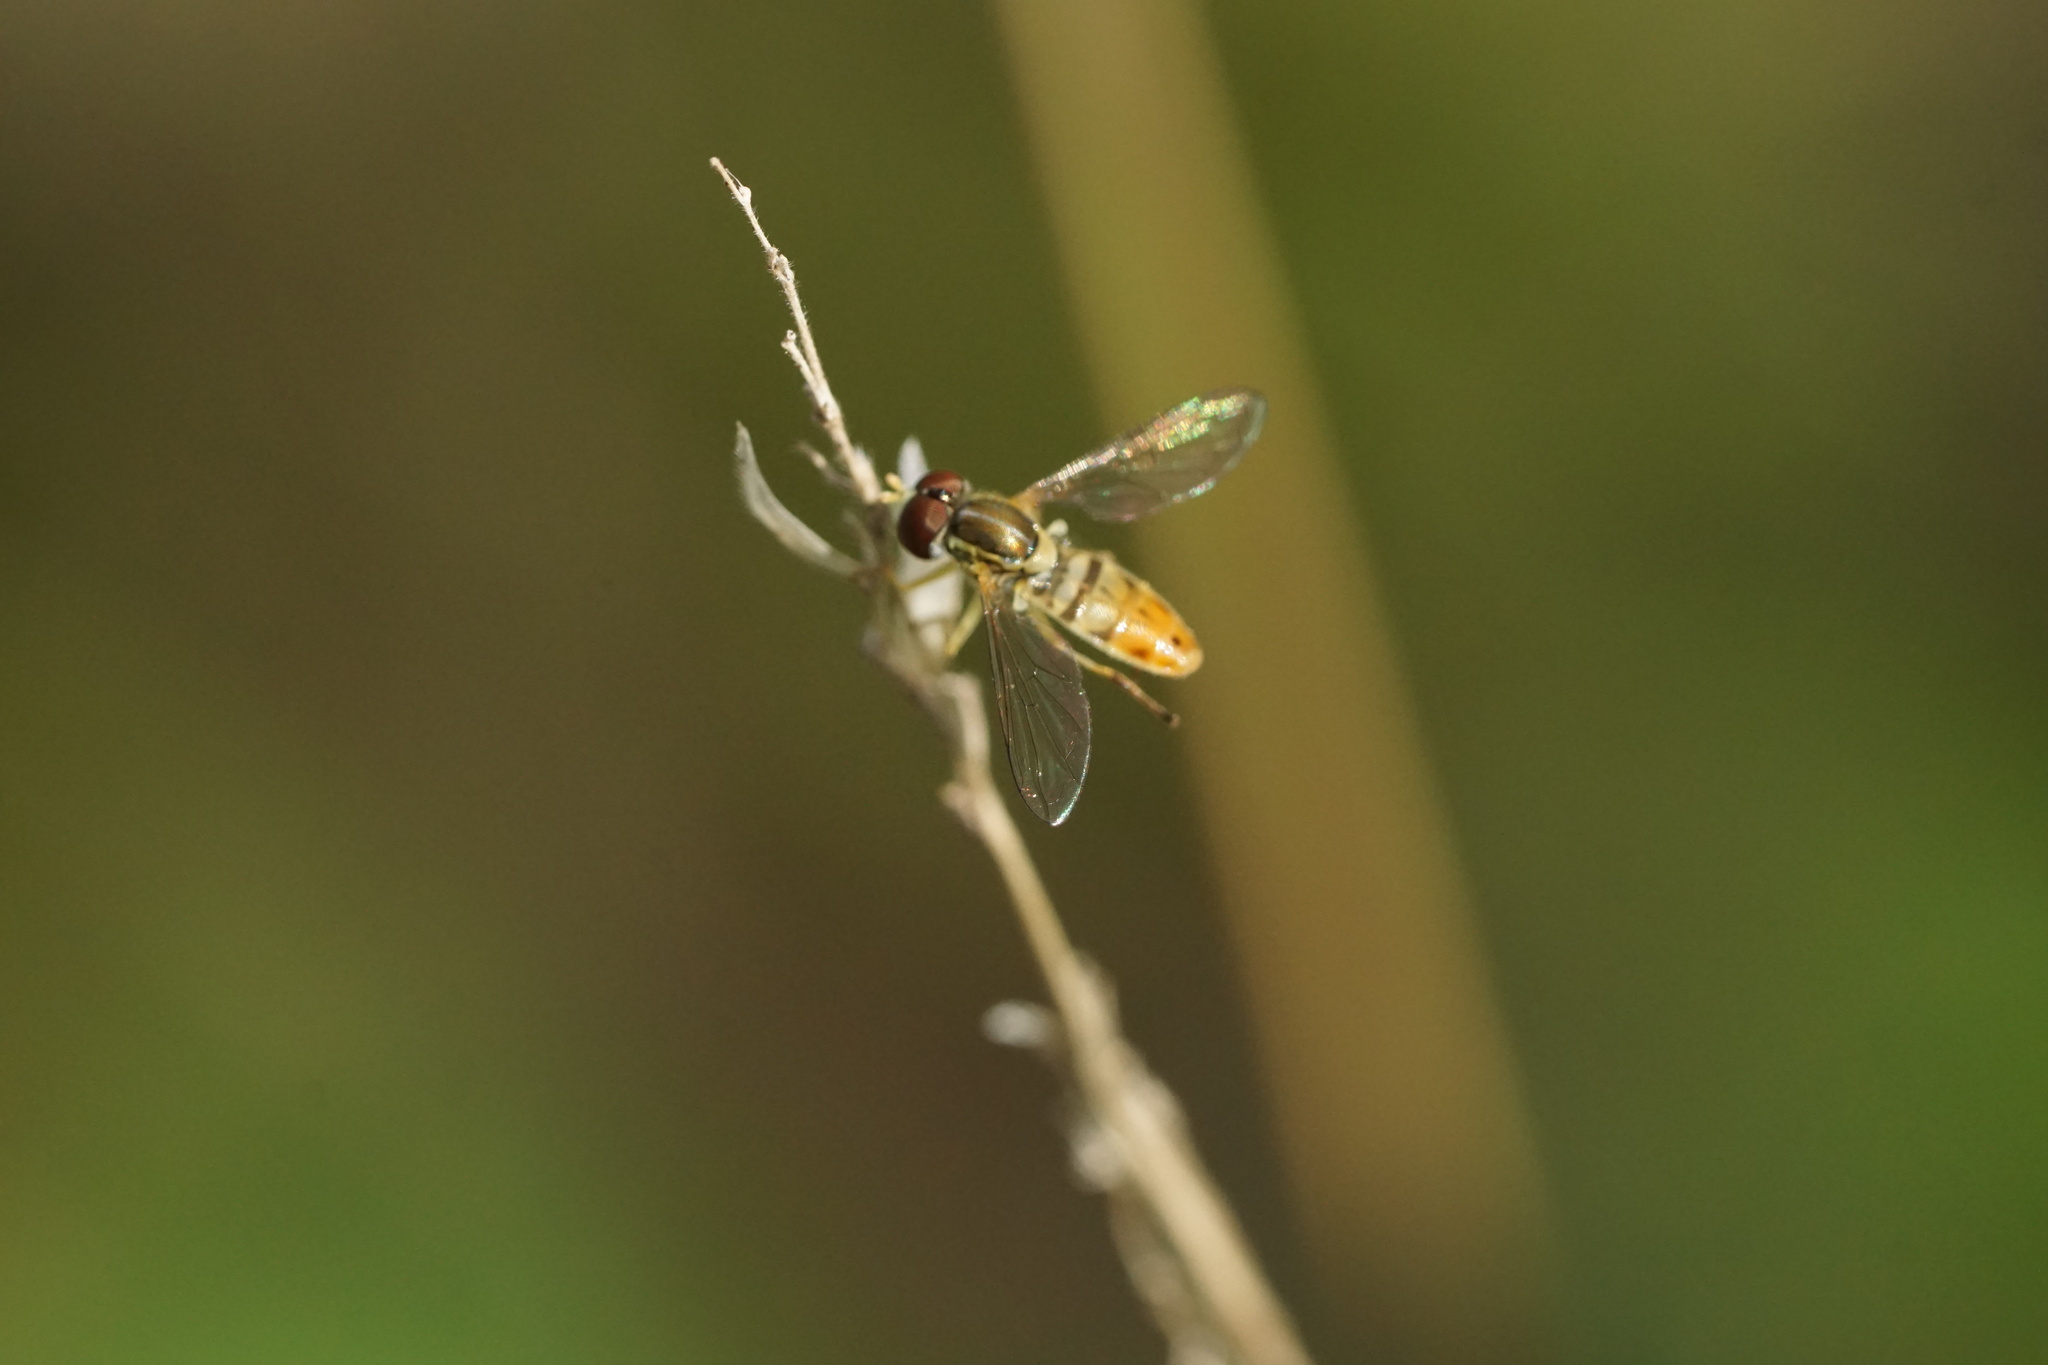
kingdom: Animalia
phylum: Arthropoda
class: Insecta
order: Diptera
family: Syrphidae
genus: Toxomerus
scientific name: Toxomerus marginatus
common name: Syrphid fly
